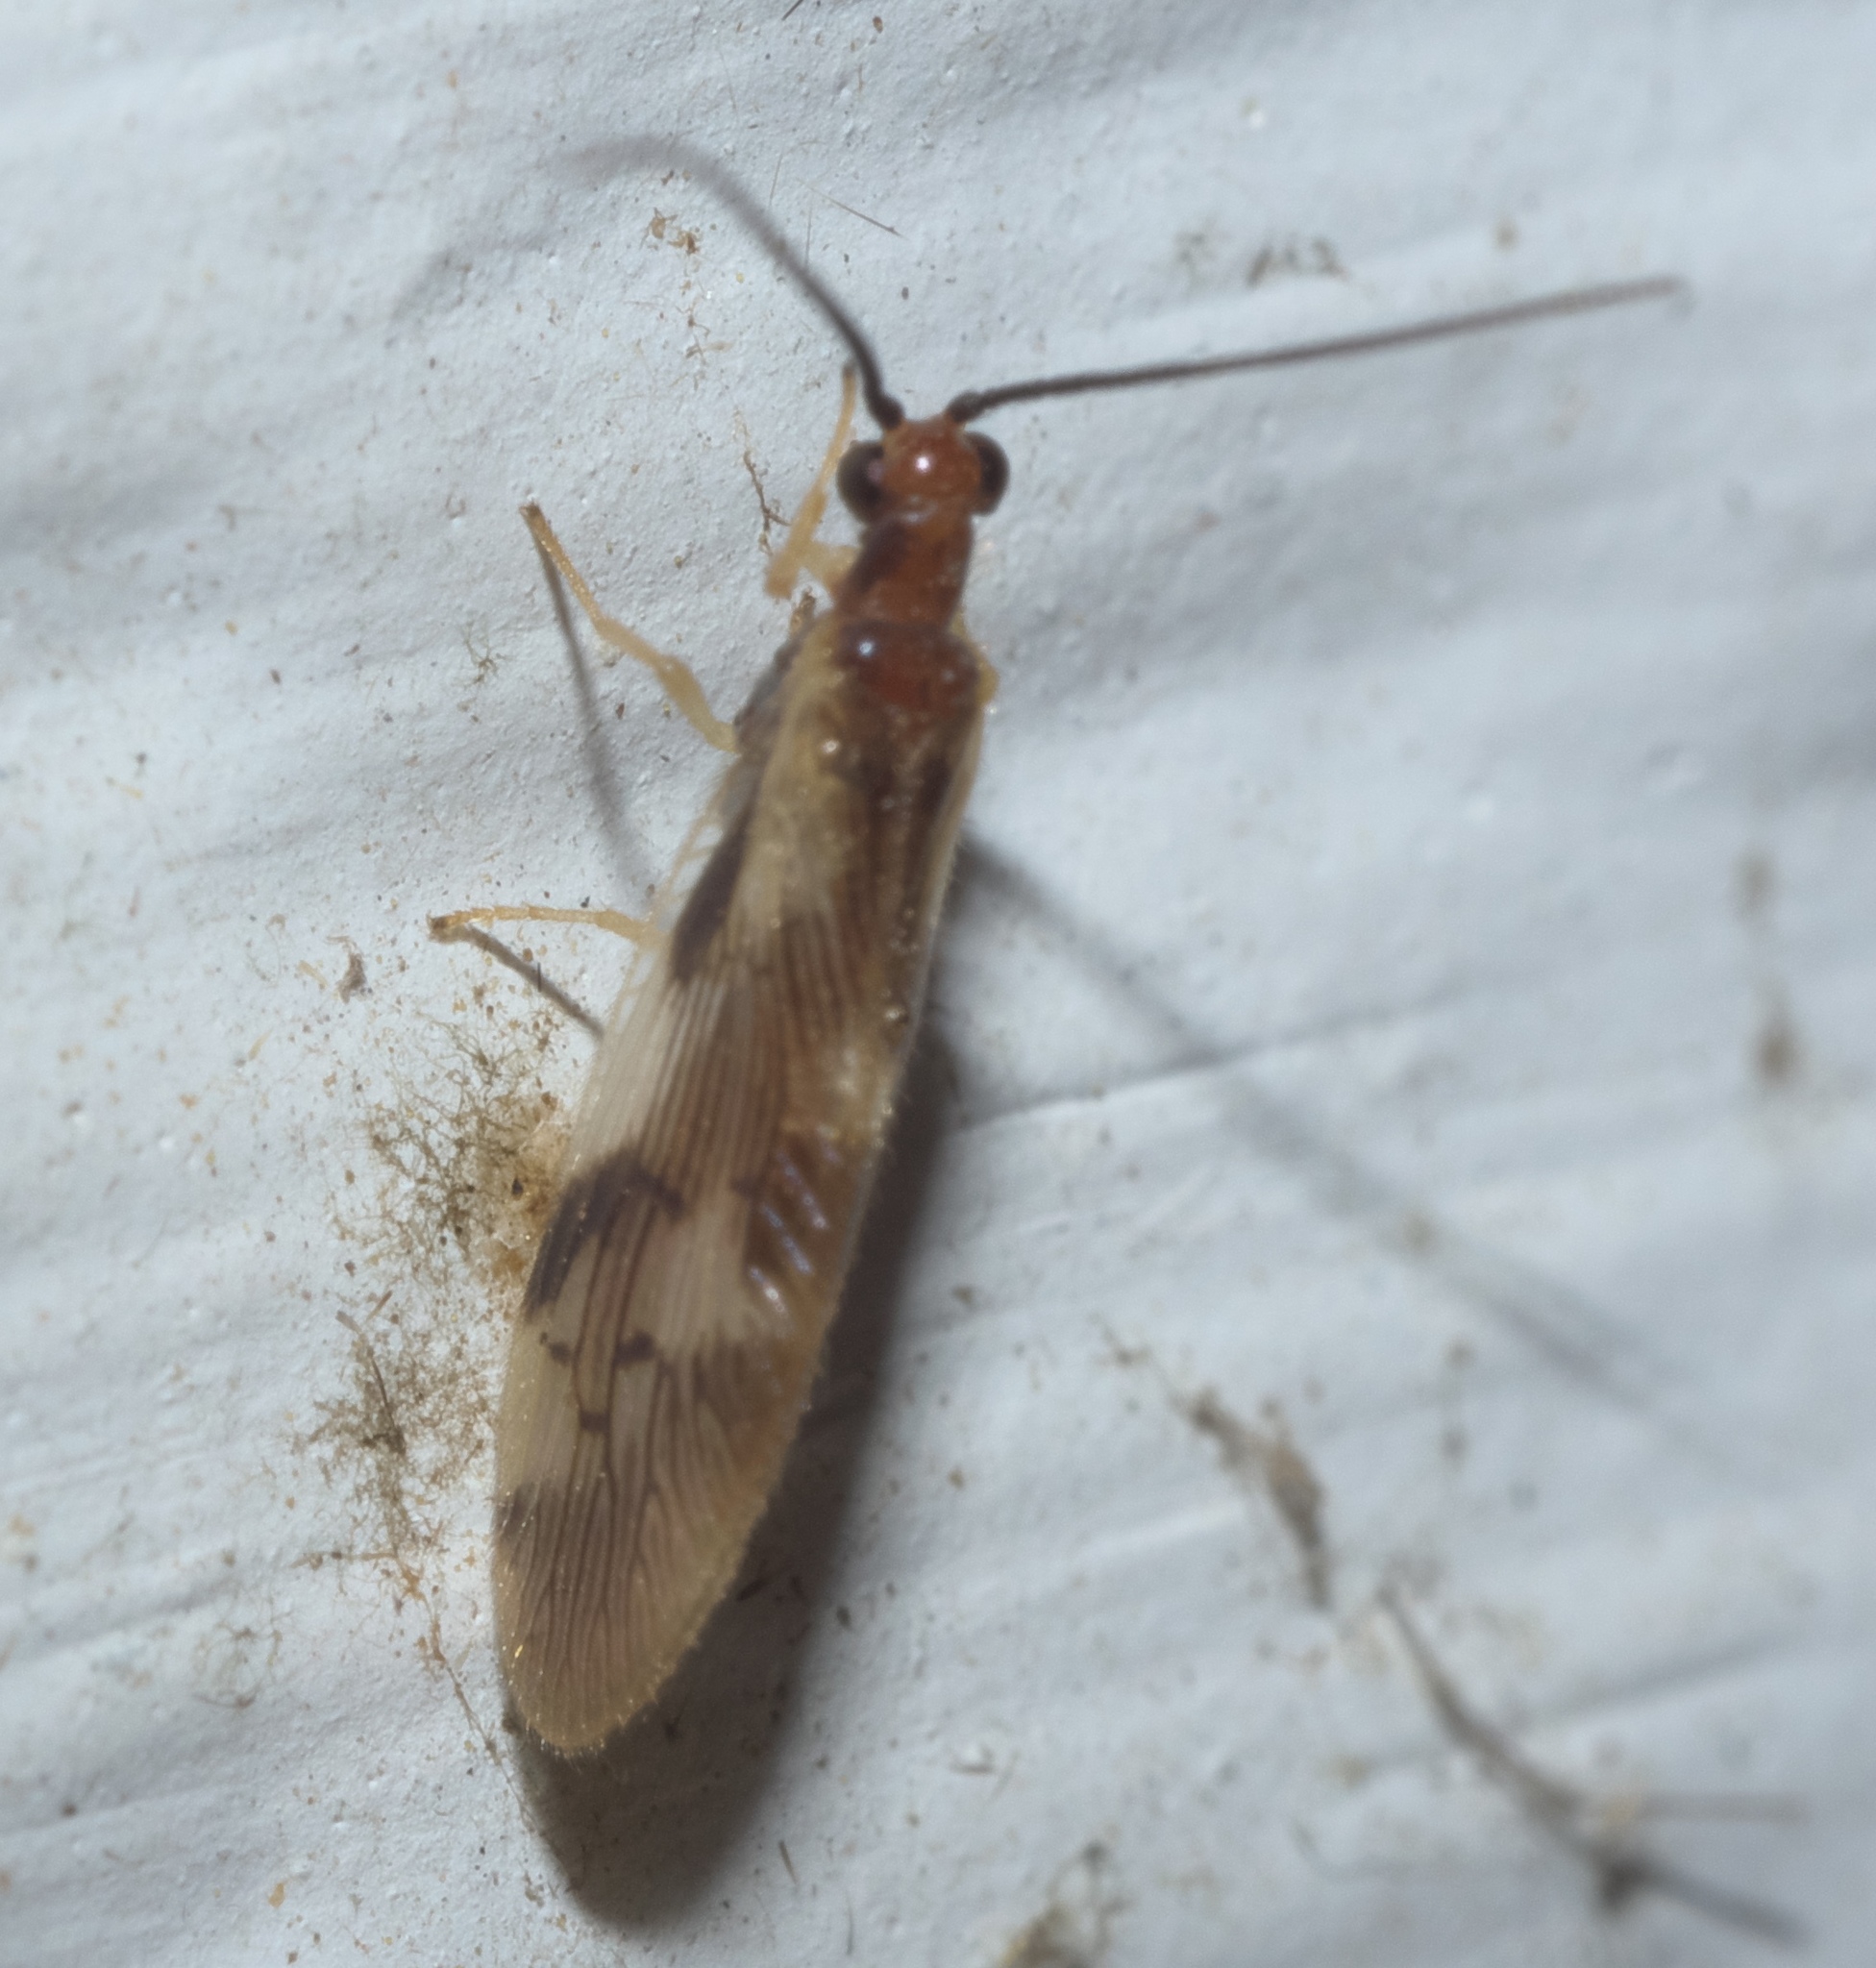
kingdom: Animalia
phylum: Arthropoda
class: Insecta
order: Neuroptera
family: Sisyridae
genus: Climacia
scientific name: Climacia areolaris
